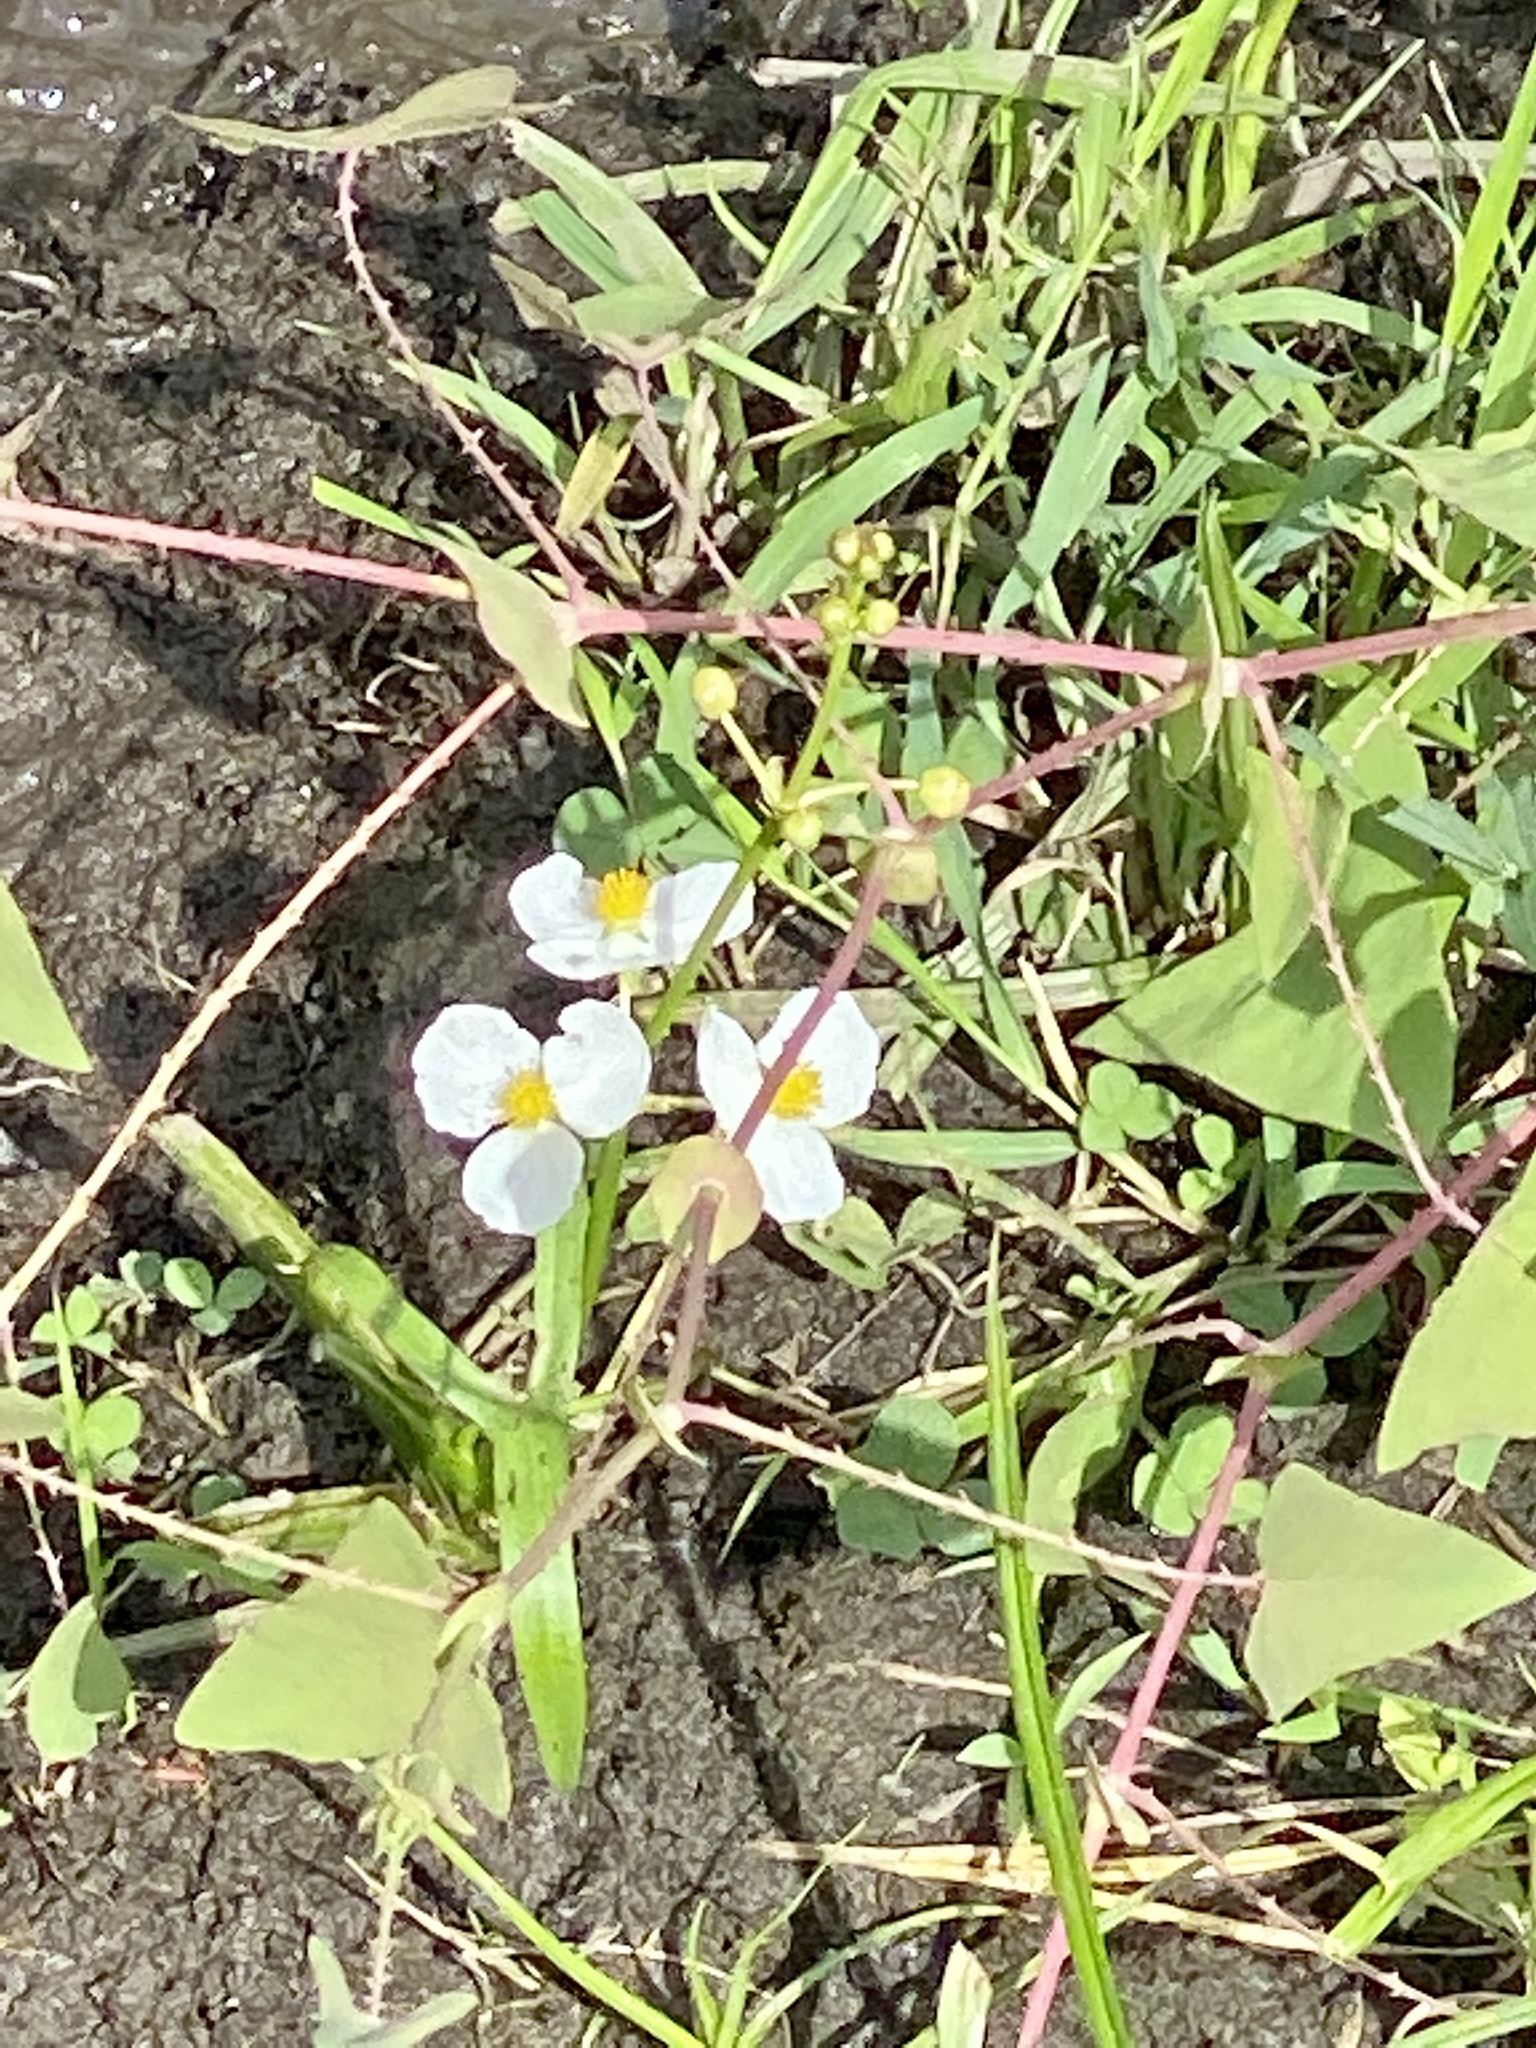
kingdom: Plantae
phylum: Tracheophyta
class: Liliopsida
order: Alismatales
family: Alismataceae
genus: Sagittaria
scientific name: Sagittaria latifolia
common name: Duck-potato
